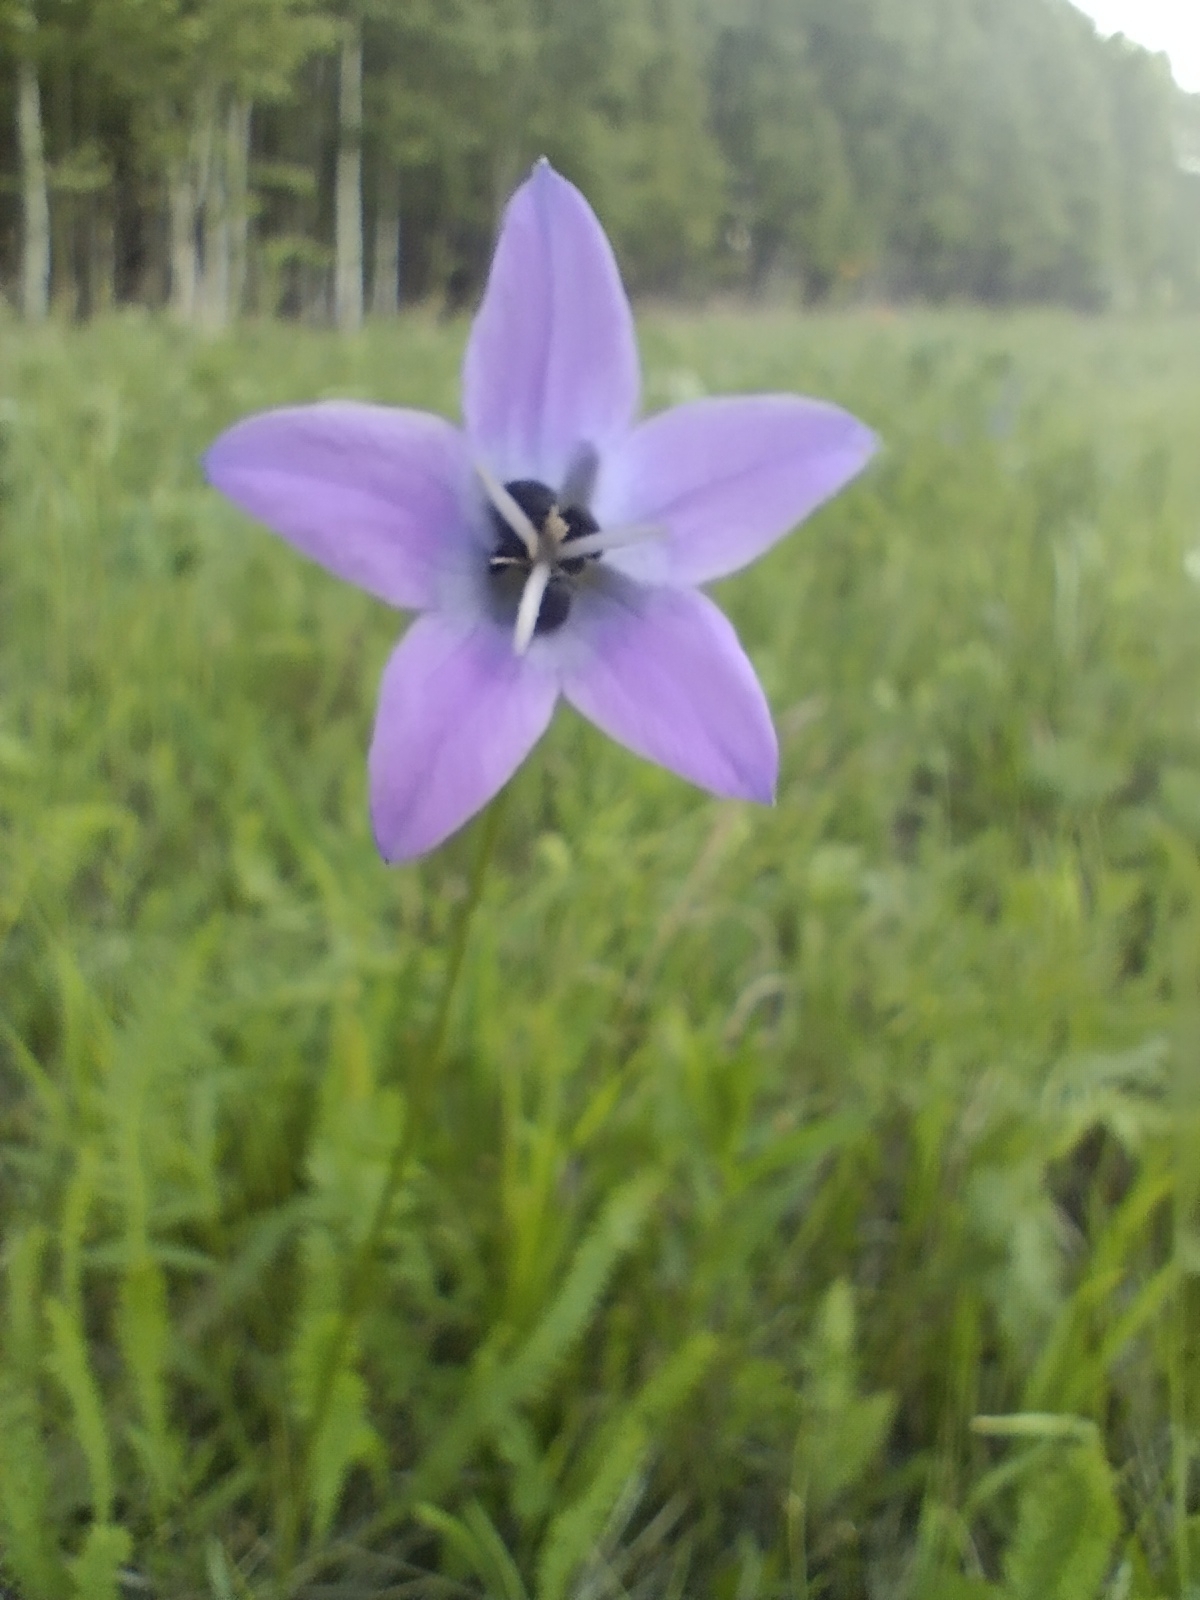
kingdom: Plantae
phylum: Tracheophyta
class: Magnoliopsida
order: Asterales
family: Campanulaceae
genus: Campanula
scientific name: Campanula stevenii
